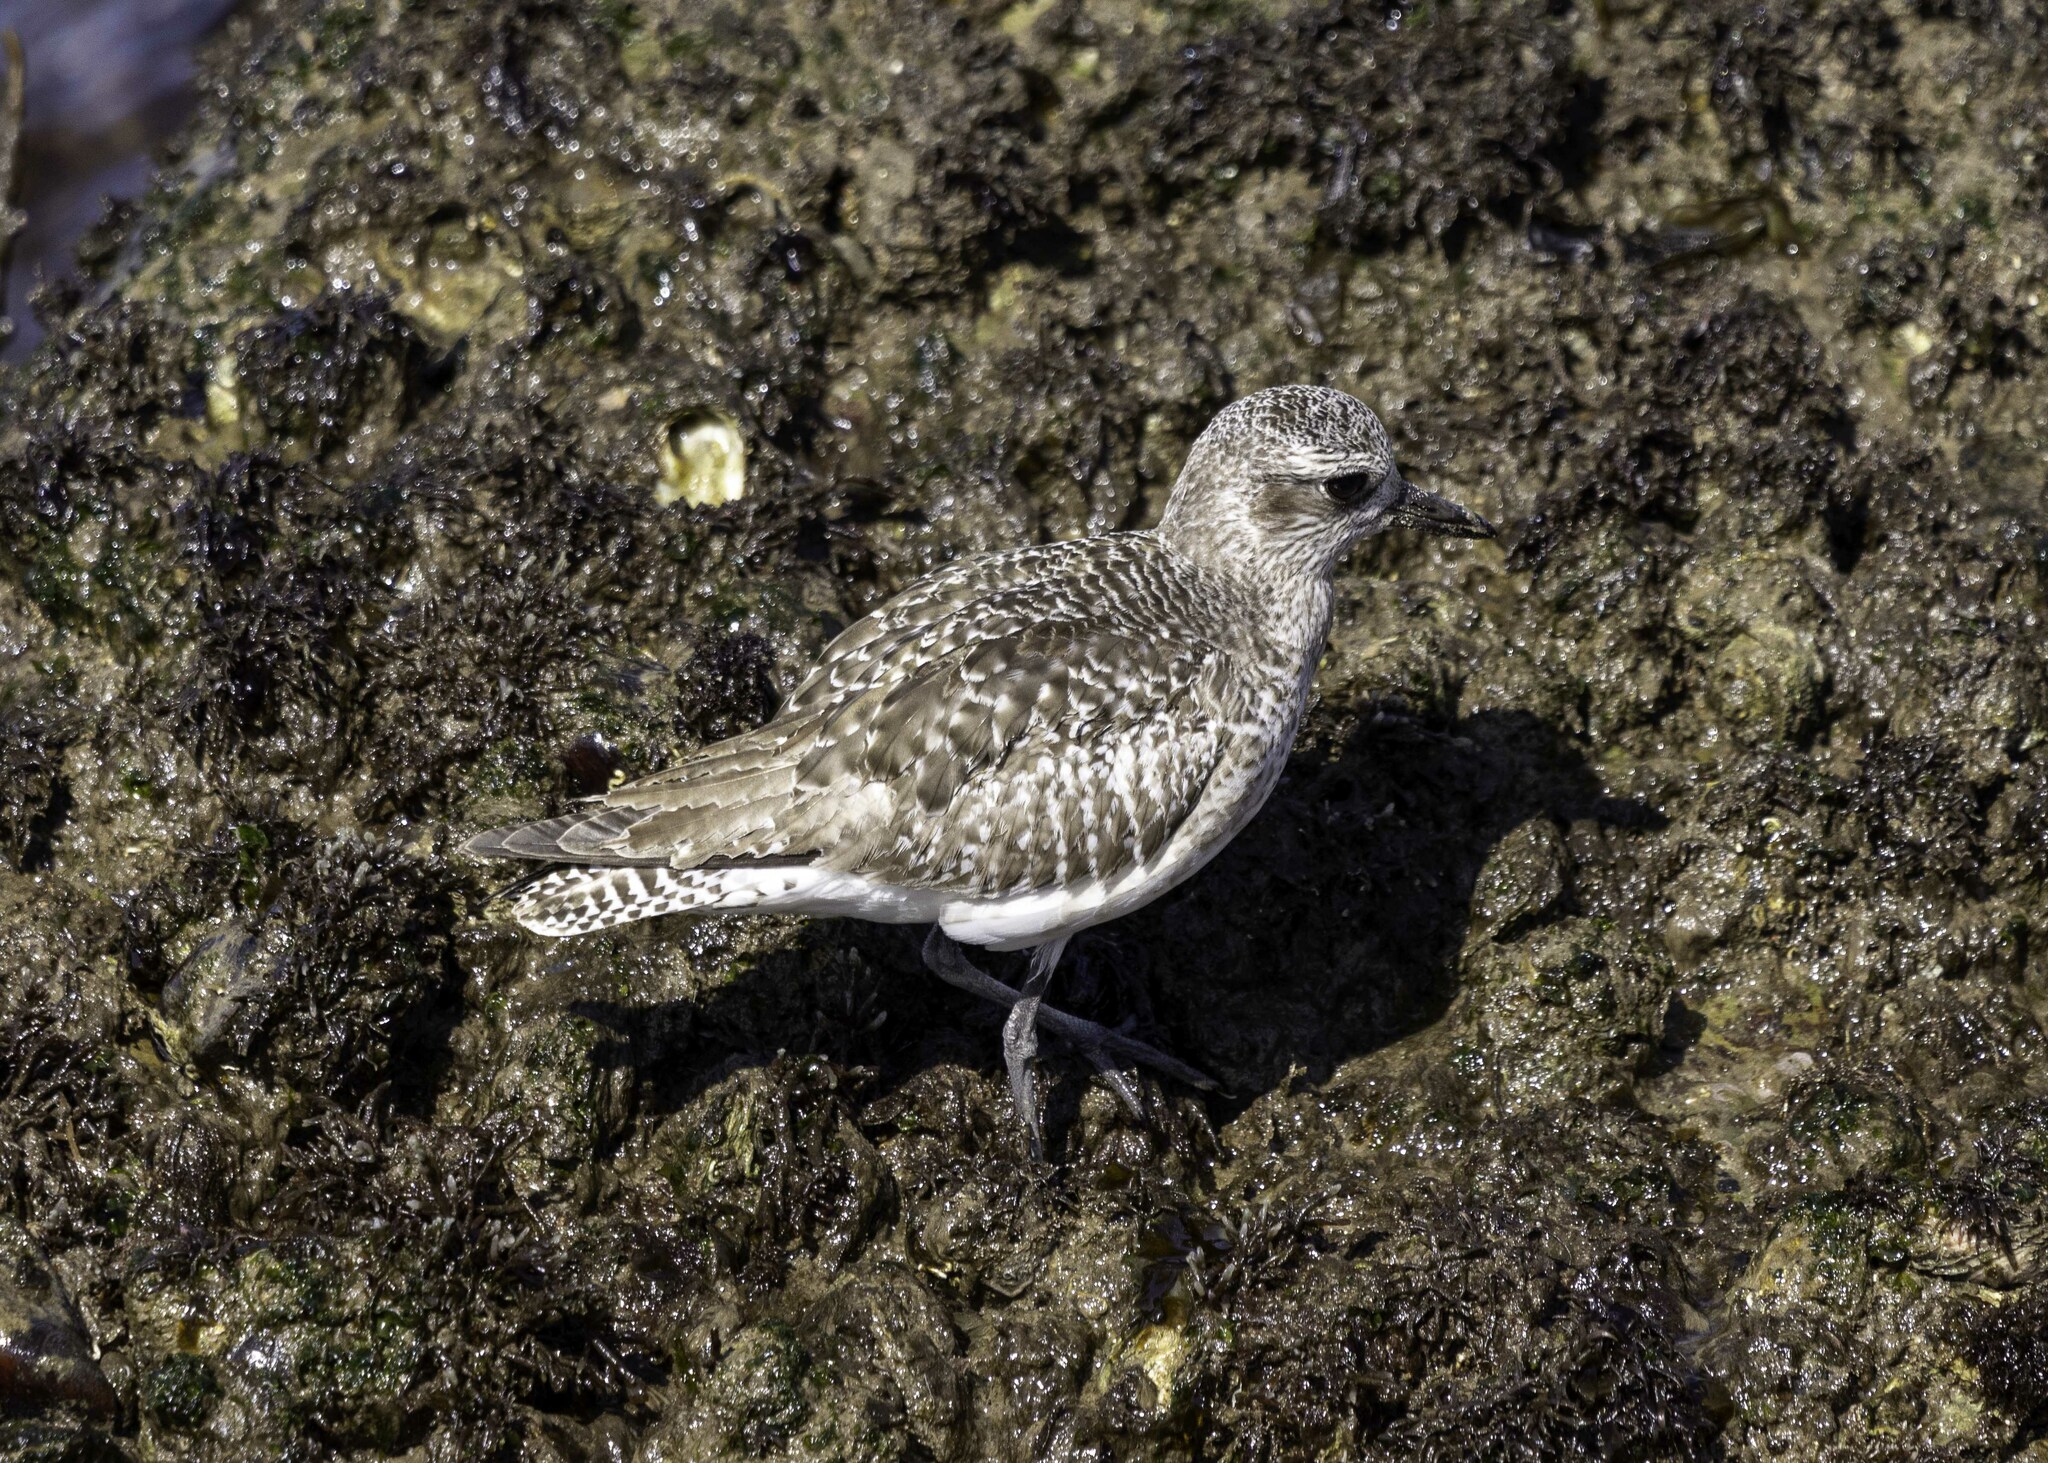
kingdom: Animalia
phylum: Chordata
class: Aves
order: Charadriiformes
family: Charadriidae
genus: Pluvialis
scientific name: Pluvialis squatarola
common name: Grey plover
